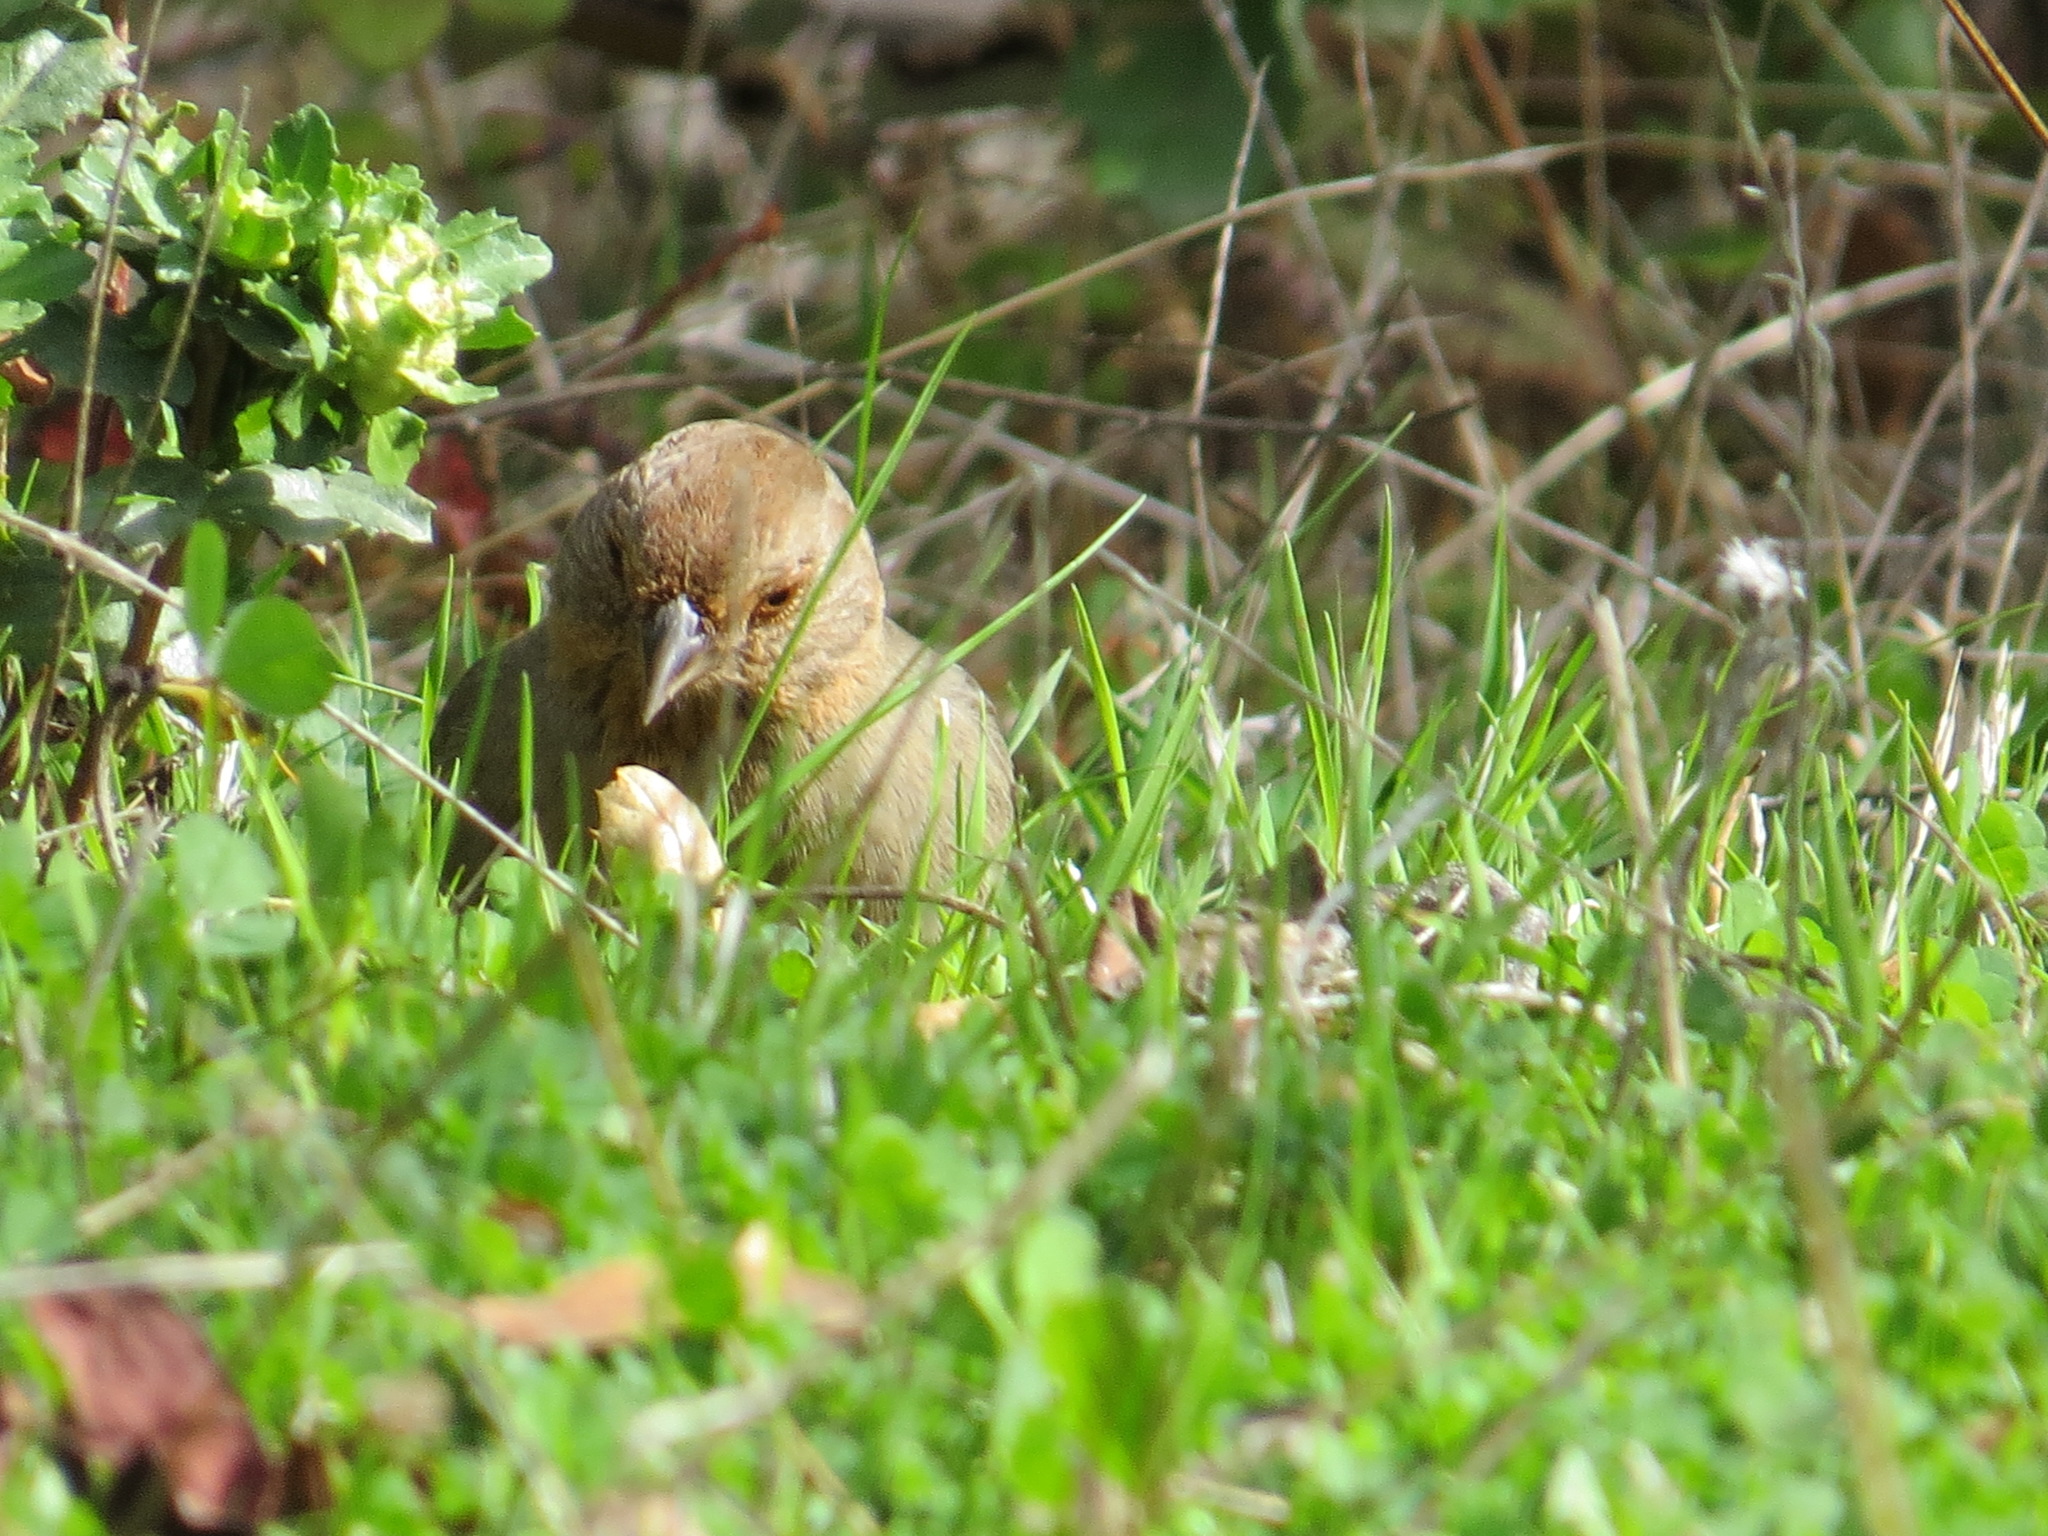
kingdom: Animalia
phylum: Chordata
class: Aves
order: Passeriformes
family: Passerellidae
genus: Melozone
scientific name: Melozone crissalis
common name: California towhee
